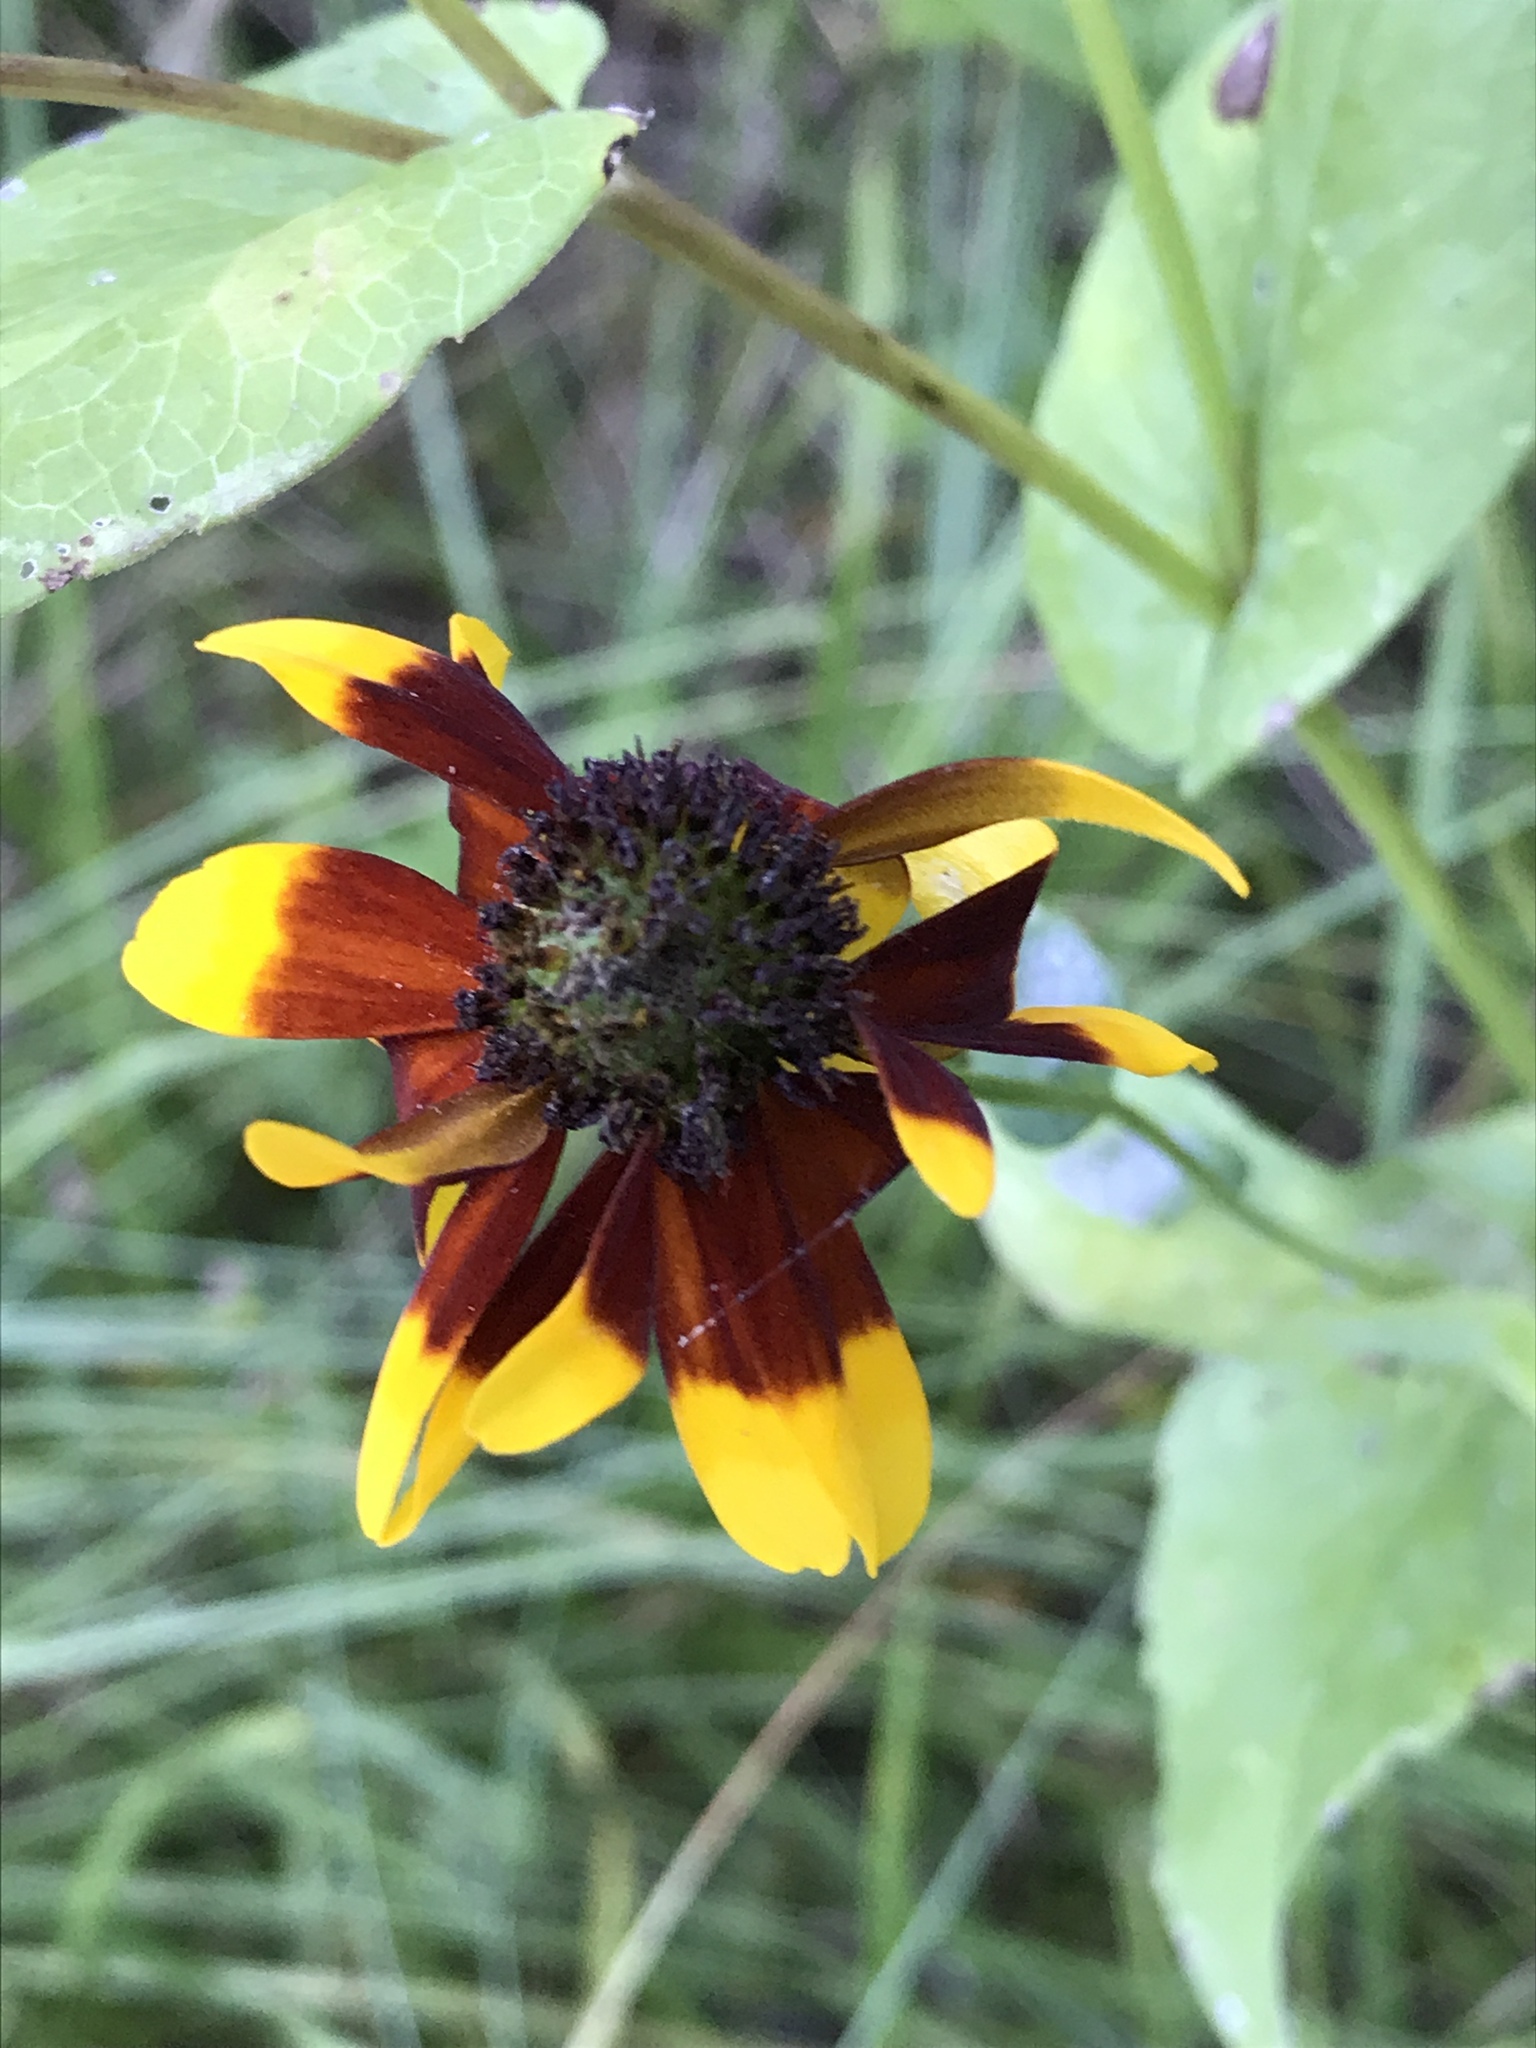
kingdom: Plantae
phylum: Tracheophyta
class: Magnoliopsida
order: Asterales
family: Asteraceae
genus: Rudbeckia
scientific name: Rudbeckia amplexicaulis
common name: Clasping-leaf coneflower
